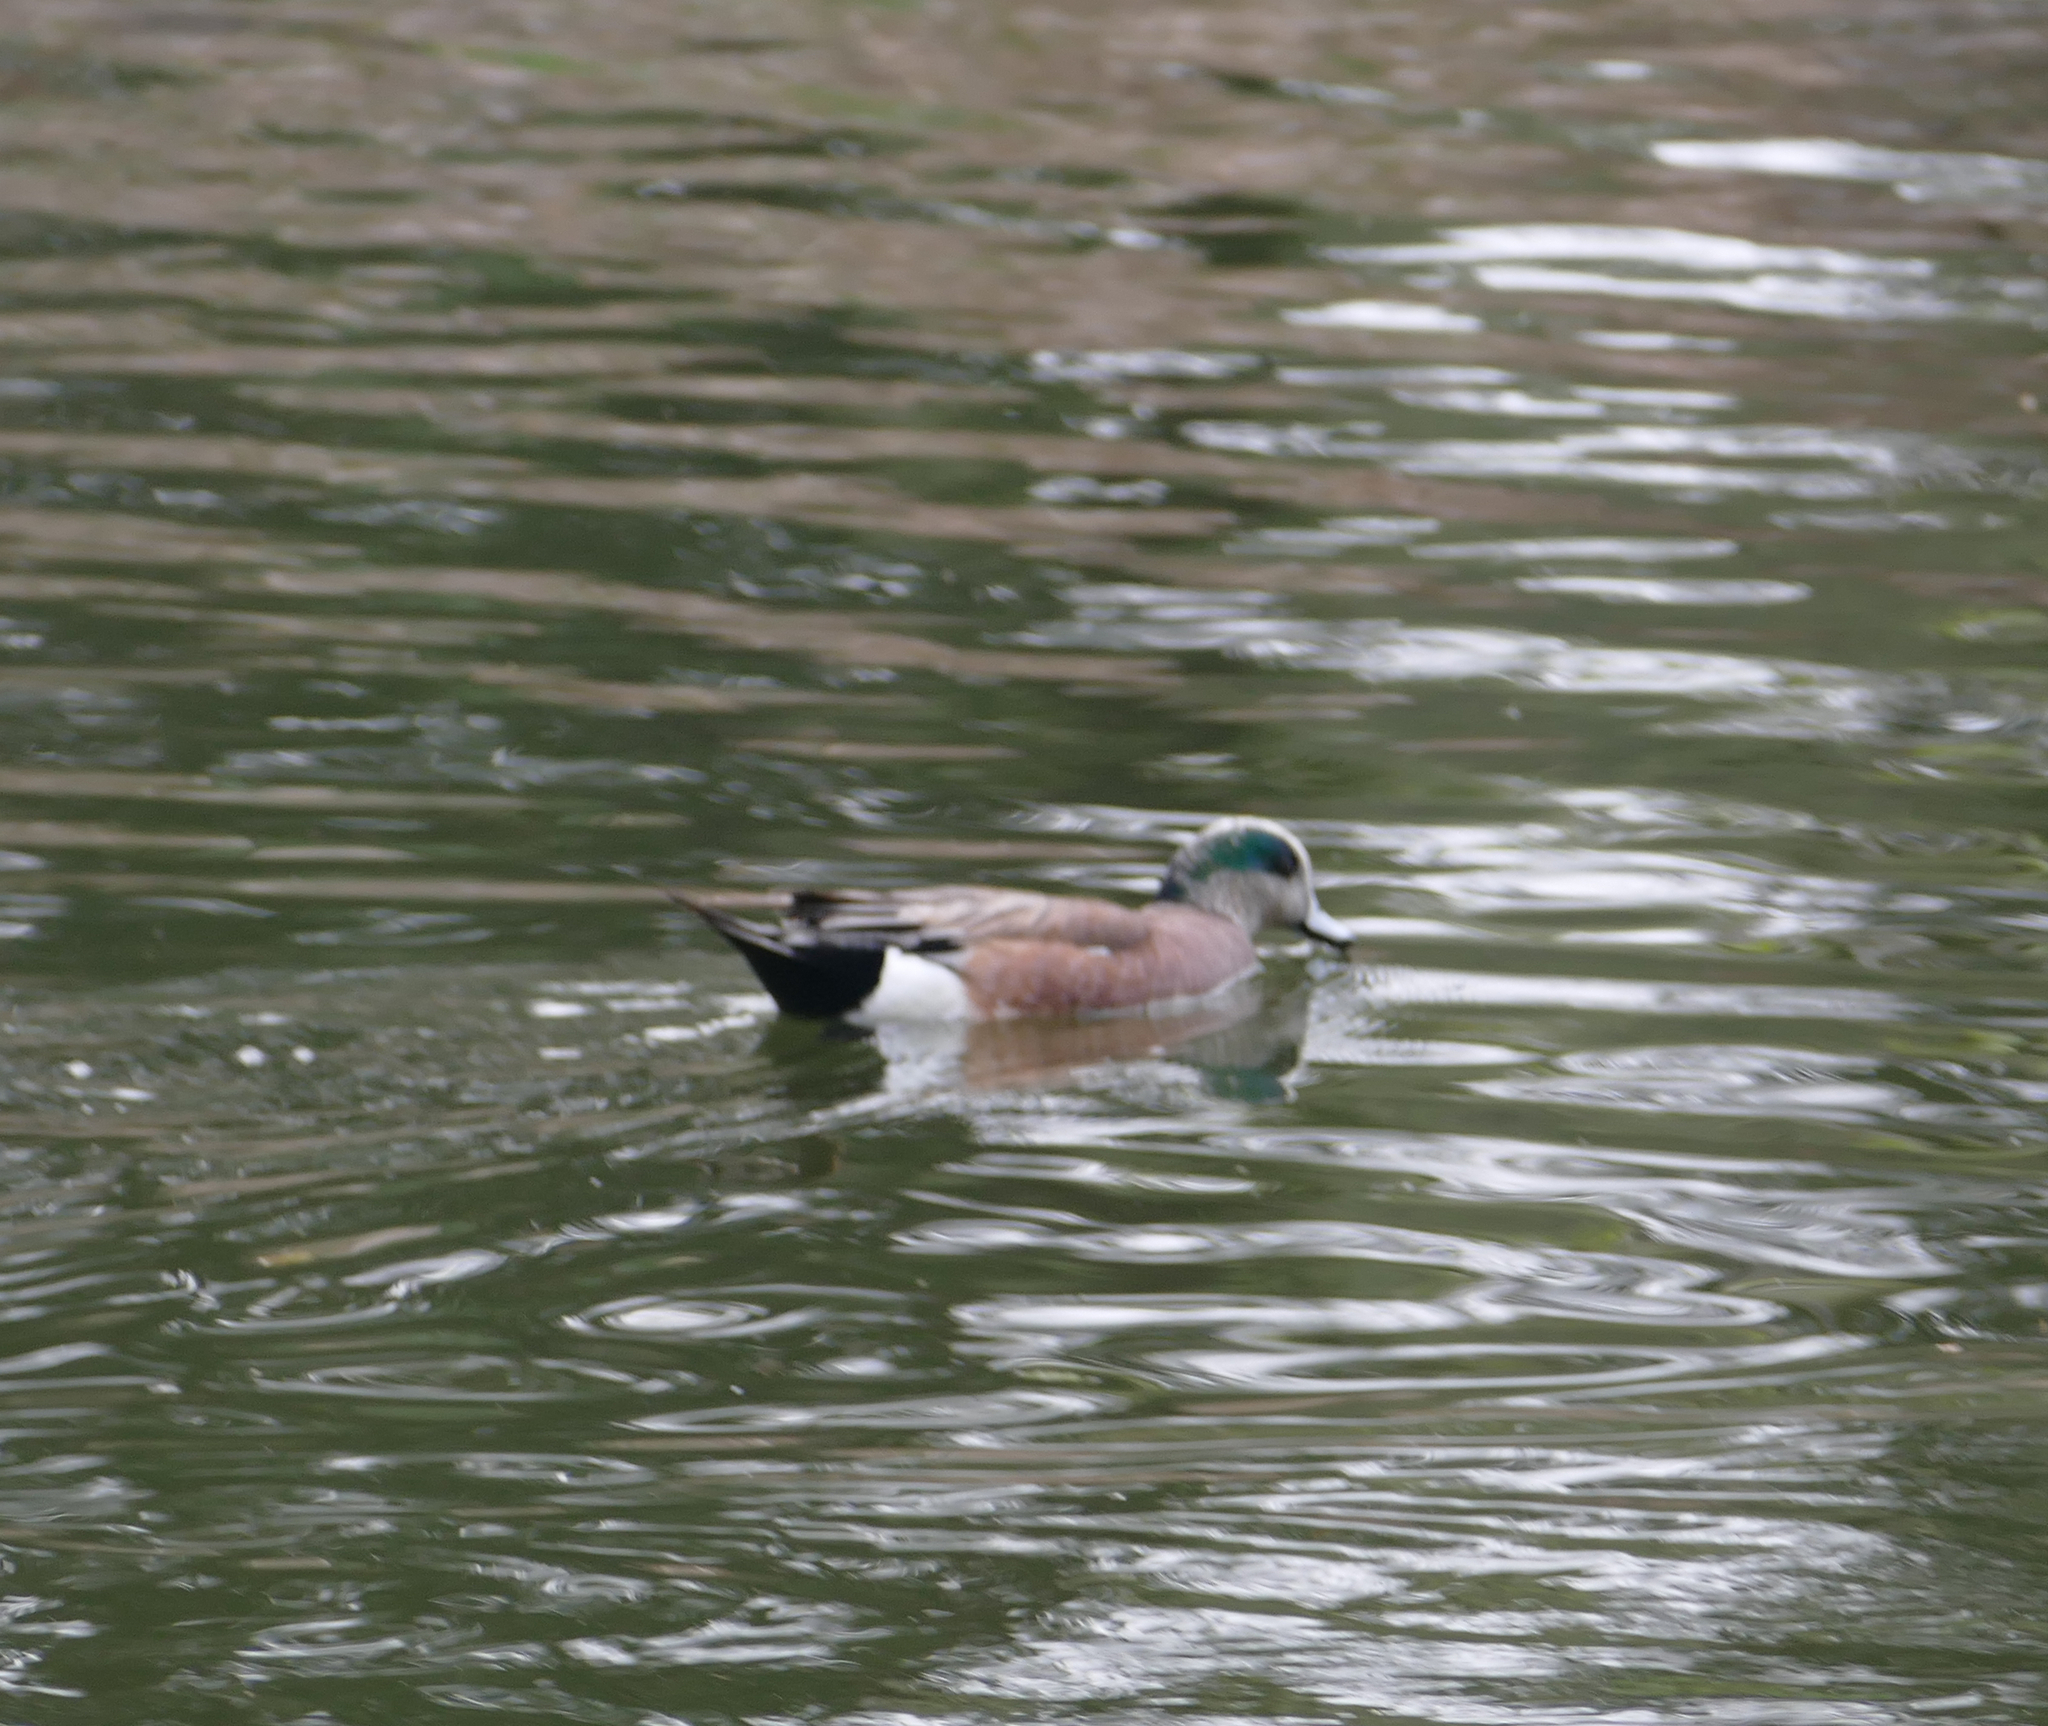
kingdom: Animalia
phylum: Chordata
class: Aves
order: Anseriformes
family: Anatidae
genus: Mareca
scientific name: Mareca americana
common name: American wigeon
